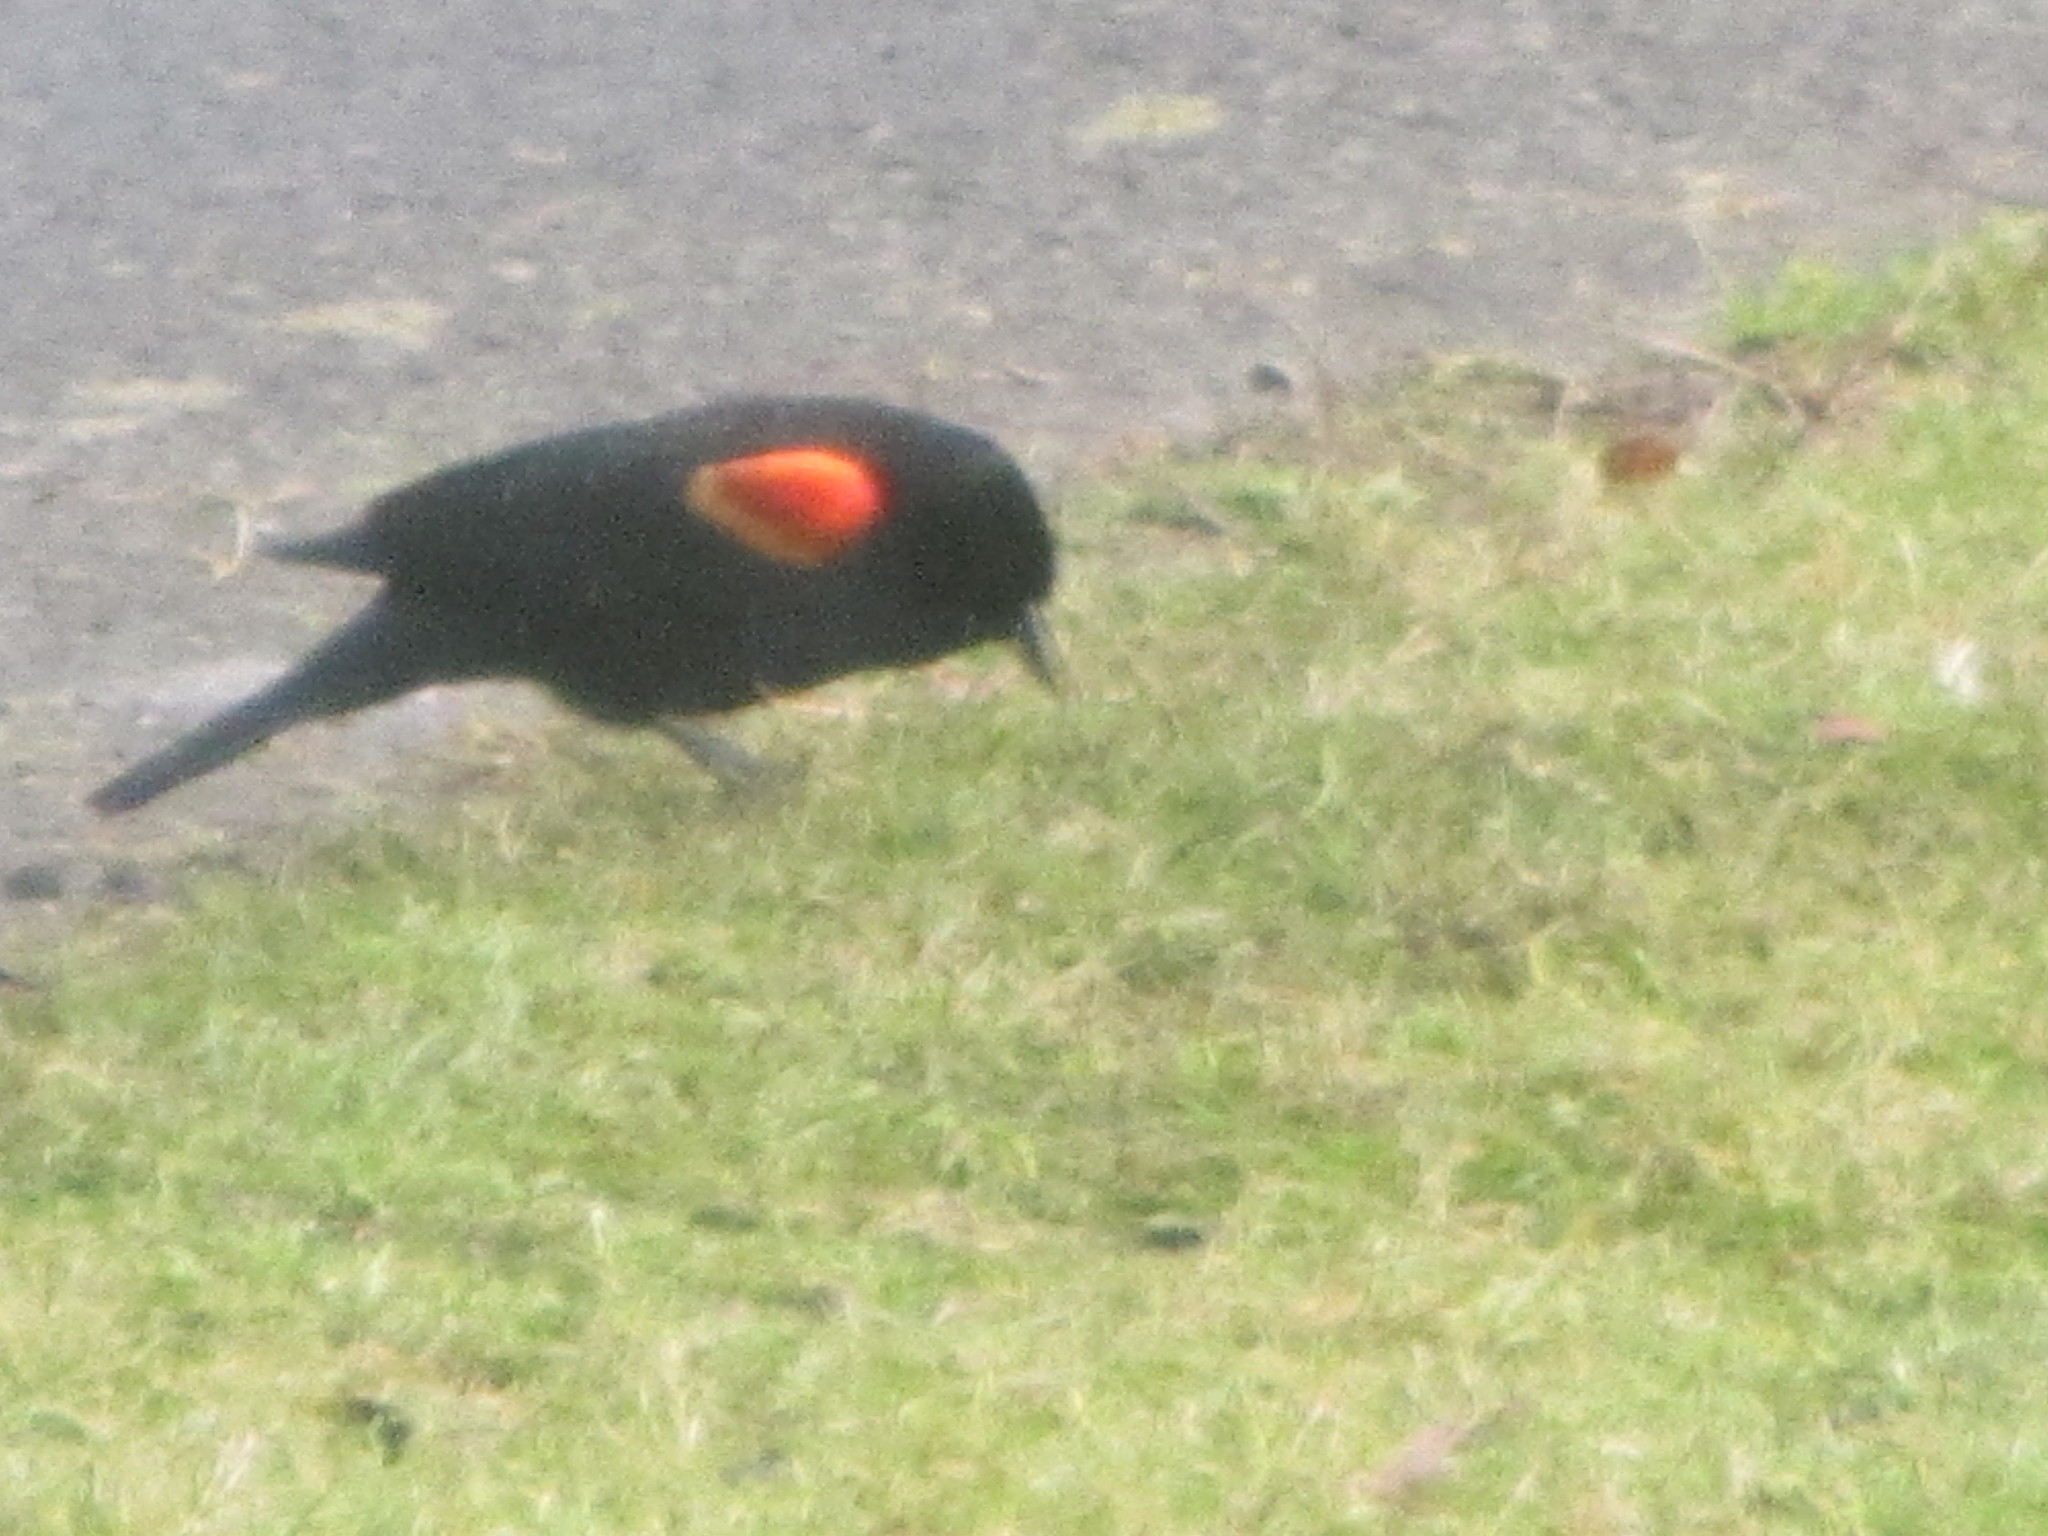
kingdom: Animalia
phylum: Chordata
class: Aves
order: Passeriformes
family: Icteridae
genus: Agelaius
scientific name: Agelaius phoeniceus
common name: Red-winged blackbird
